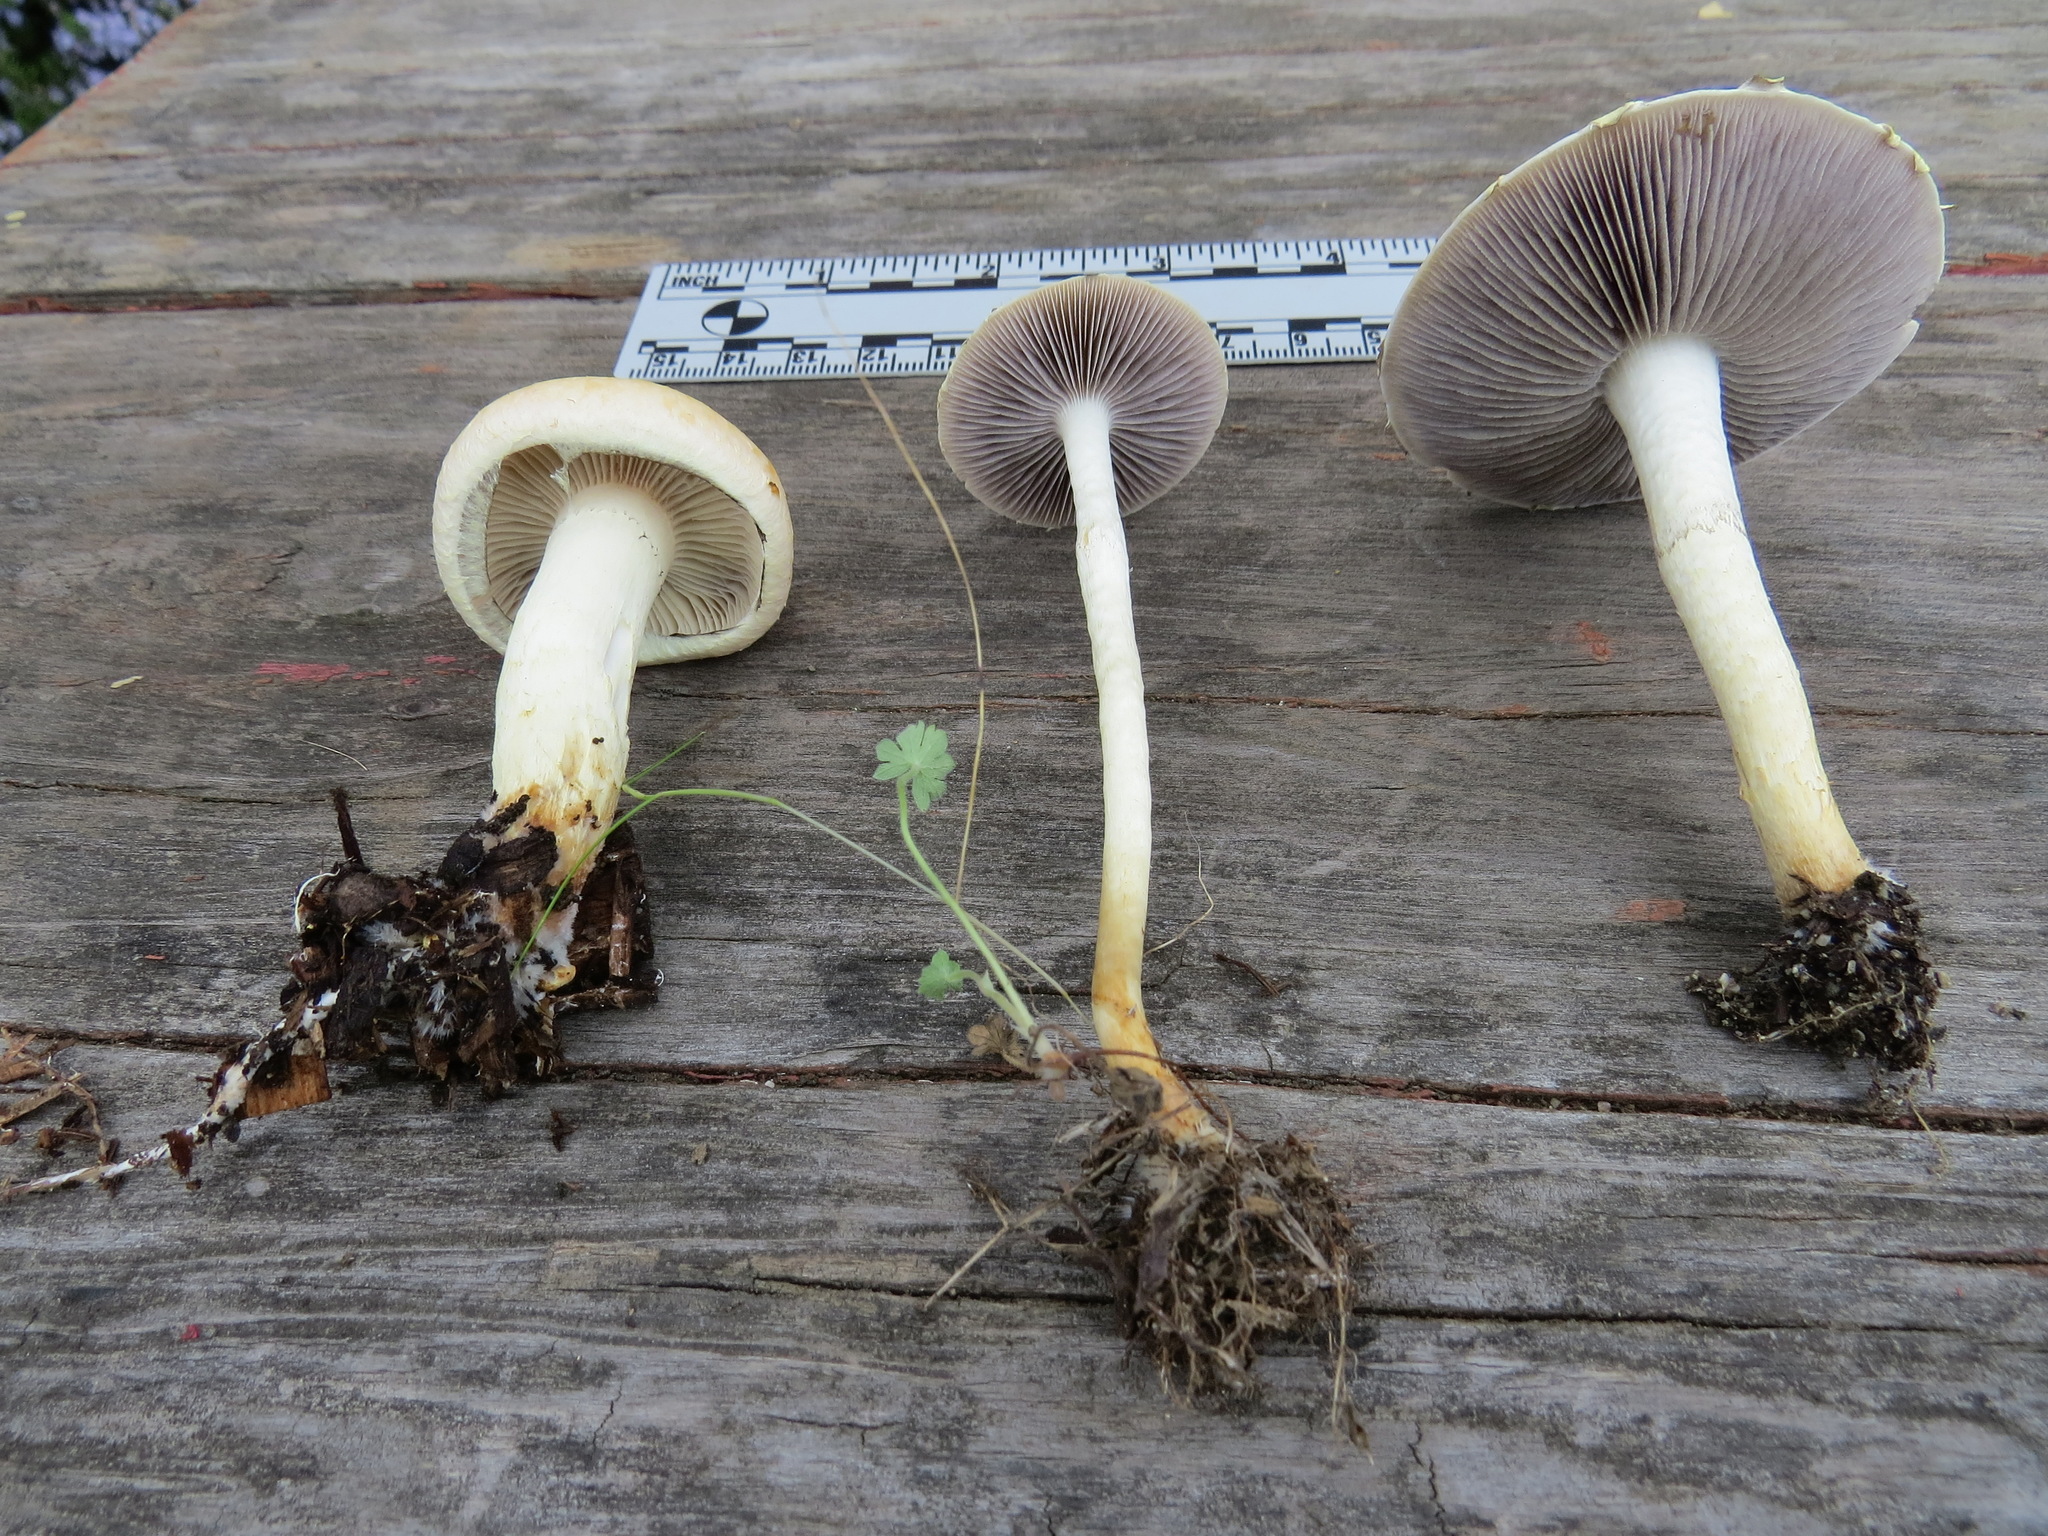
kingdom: Fungi
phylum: Basidiomycota
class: Agaricomycetes
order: Agaricales
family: Strophariaceae
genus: Leratiomyces
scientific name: Leratiomyces percevalii
